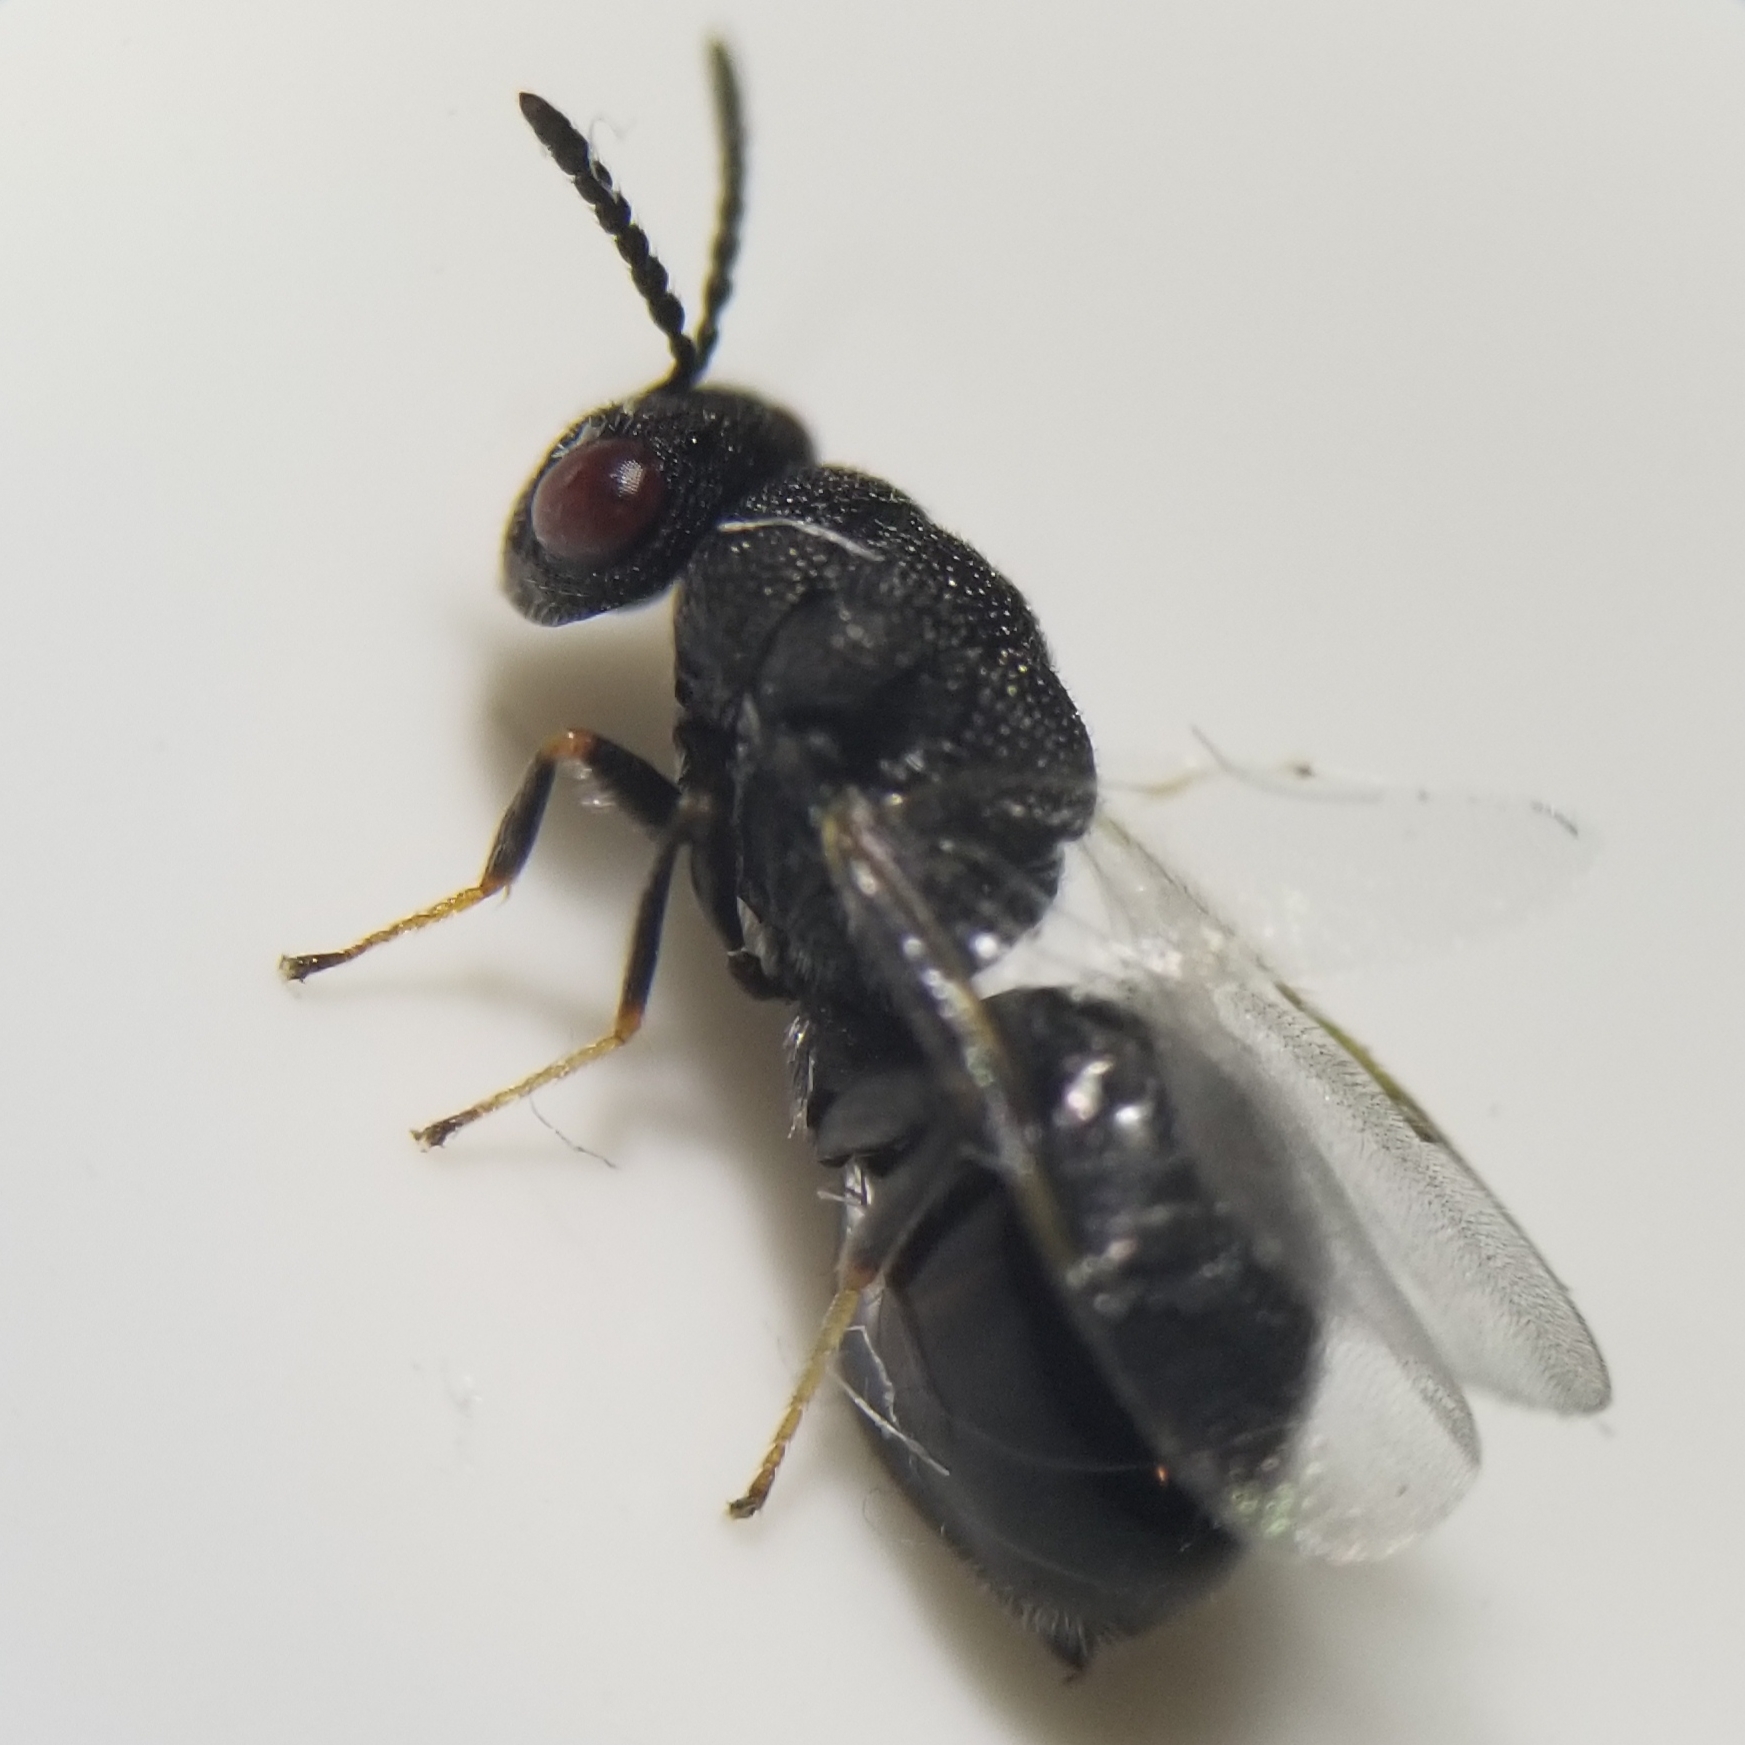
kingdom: Animalia
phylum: Arthropoda
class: Insecta
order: Hymenoptera
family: Eurytomidae
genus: Eurytoma
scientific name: Eurytoma obtusiventris
